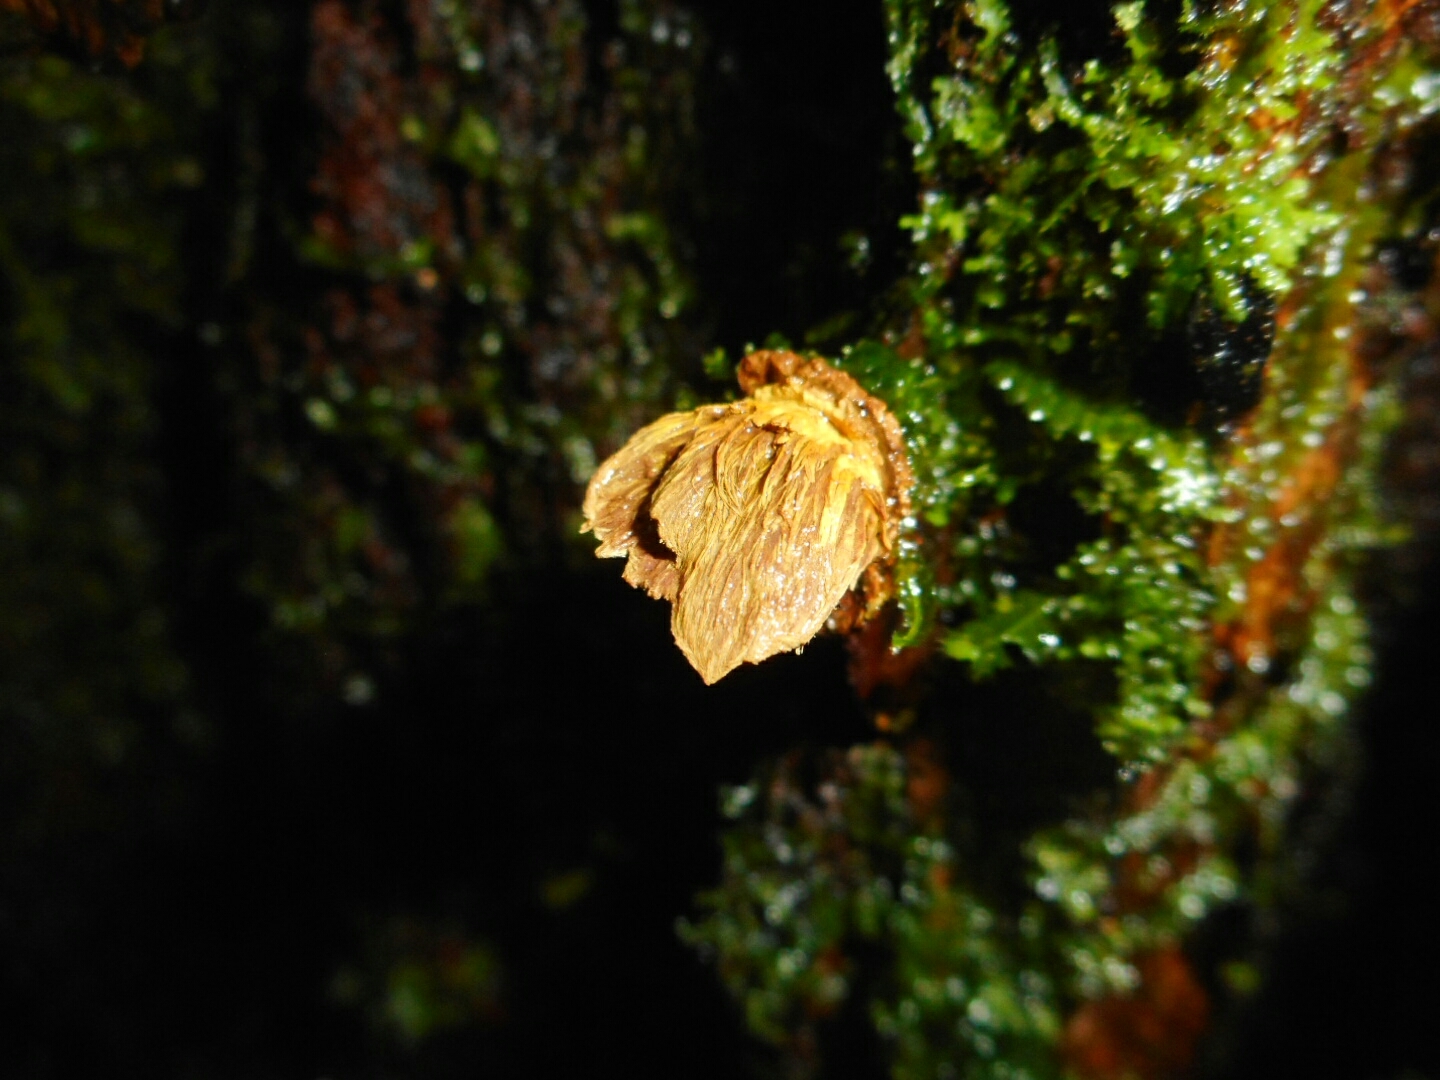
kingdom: Fungi
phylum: Ascomycota
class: Eurotiomycetes
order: Eurotiales
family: Trichocomaceae
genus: Trichocoma
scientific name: Trichocoma paradoxa
